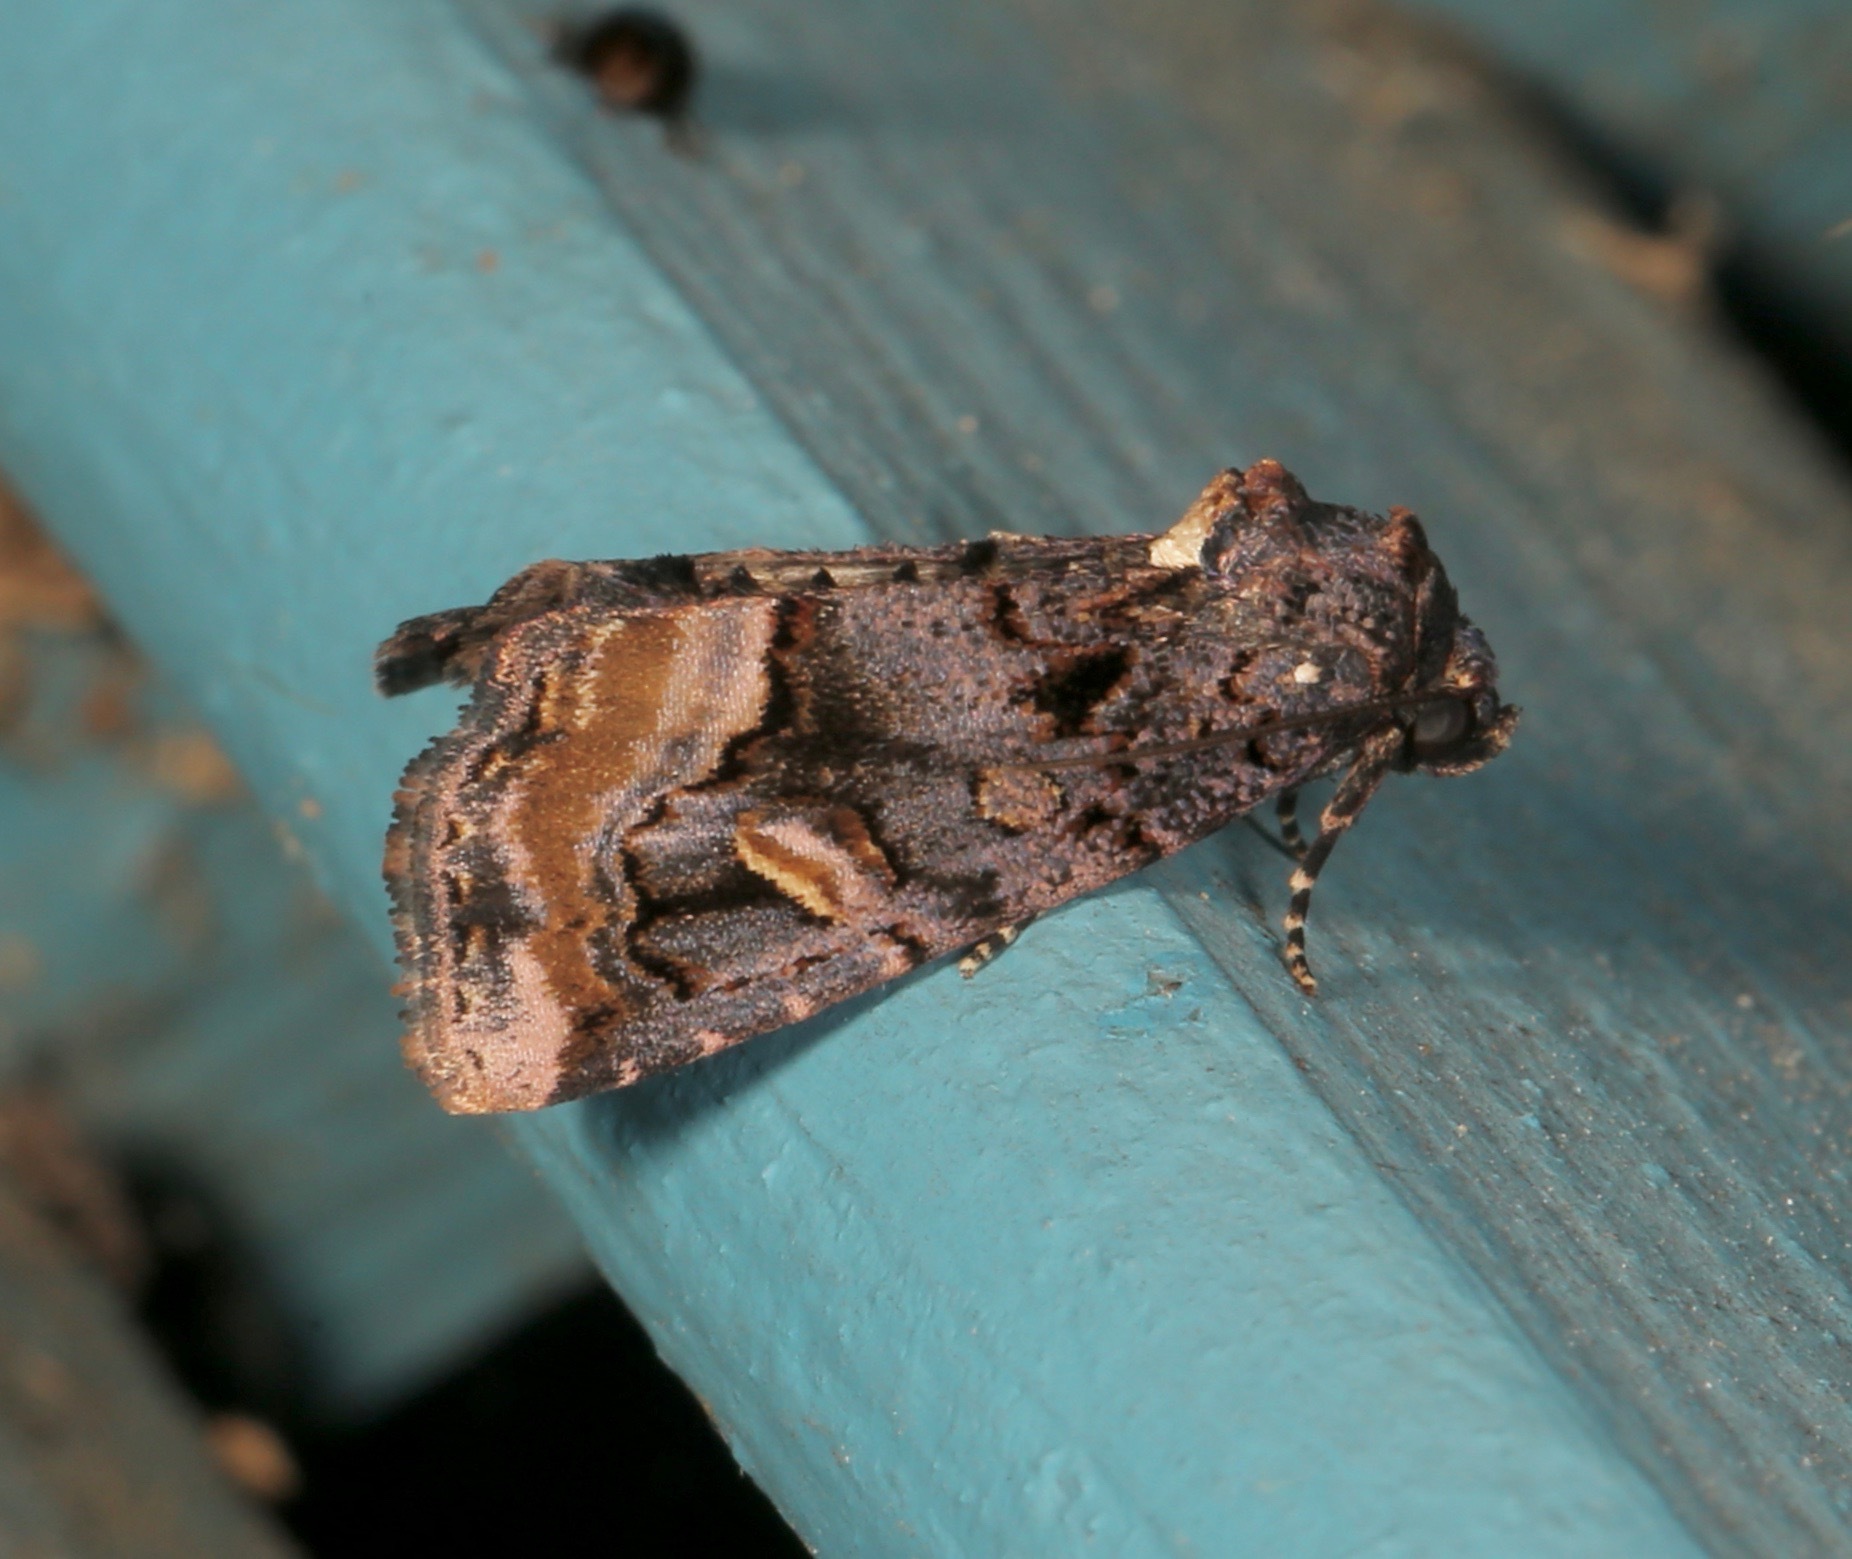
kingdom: Animalia
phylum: Arthropoda
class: Insecta
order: Lepidoptera
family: Noctuidae
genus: Homophoberia
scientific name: Homophoberia apicosa
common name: Black wedge-spot
